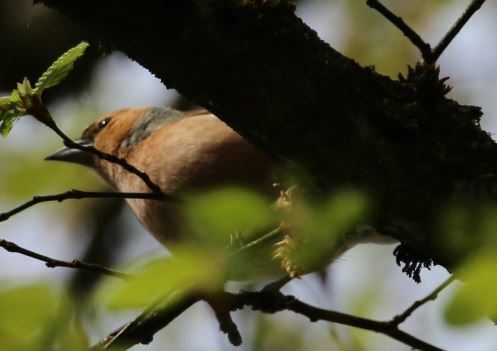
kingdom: Animalia
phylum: Chordata
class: Aves
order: Passeriformes
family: Fringillidae
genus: Fringilla
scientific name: Fringilla coelebs
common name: Common chaffinch
